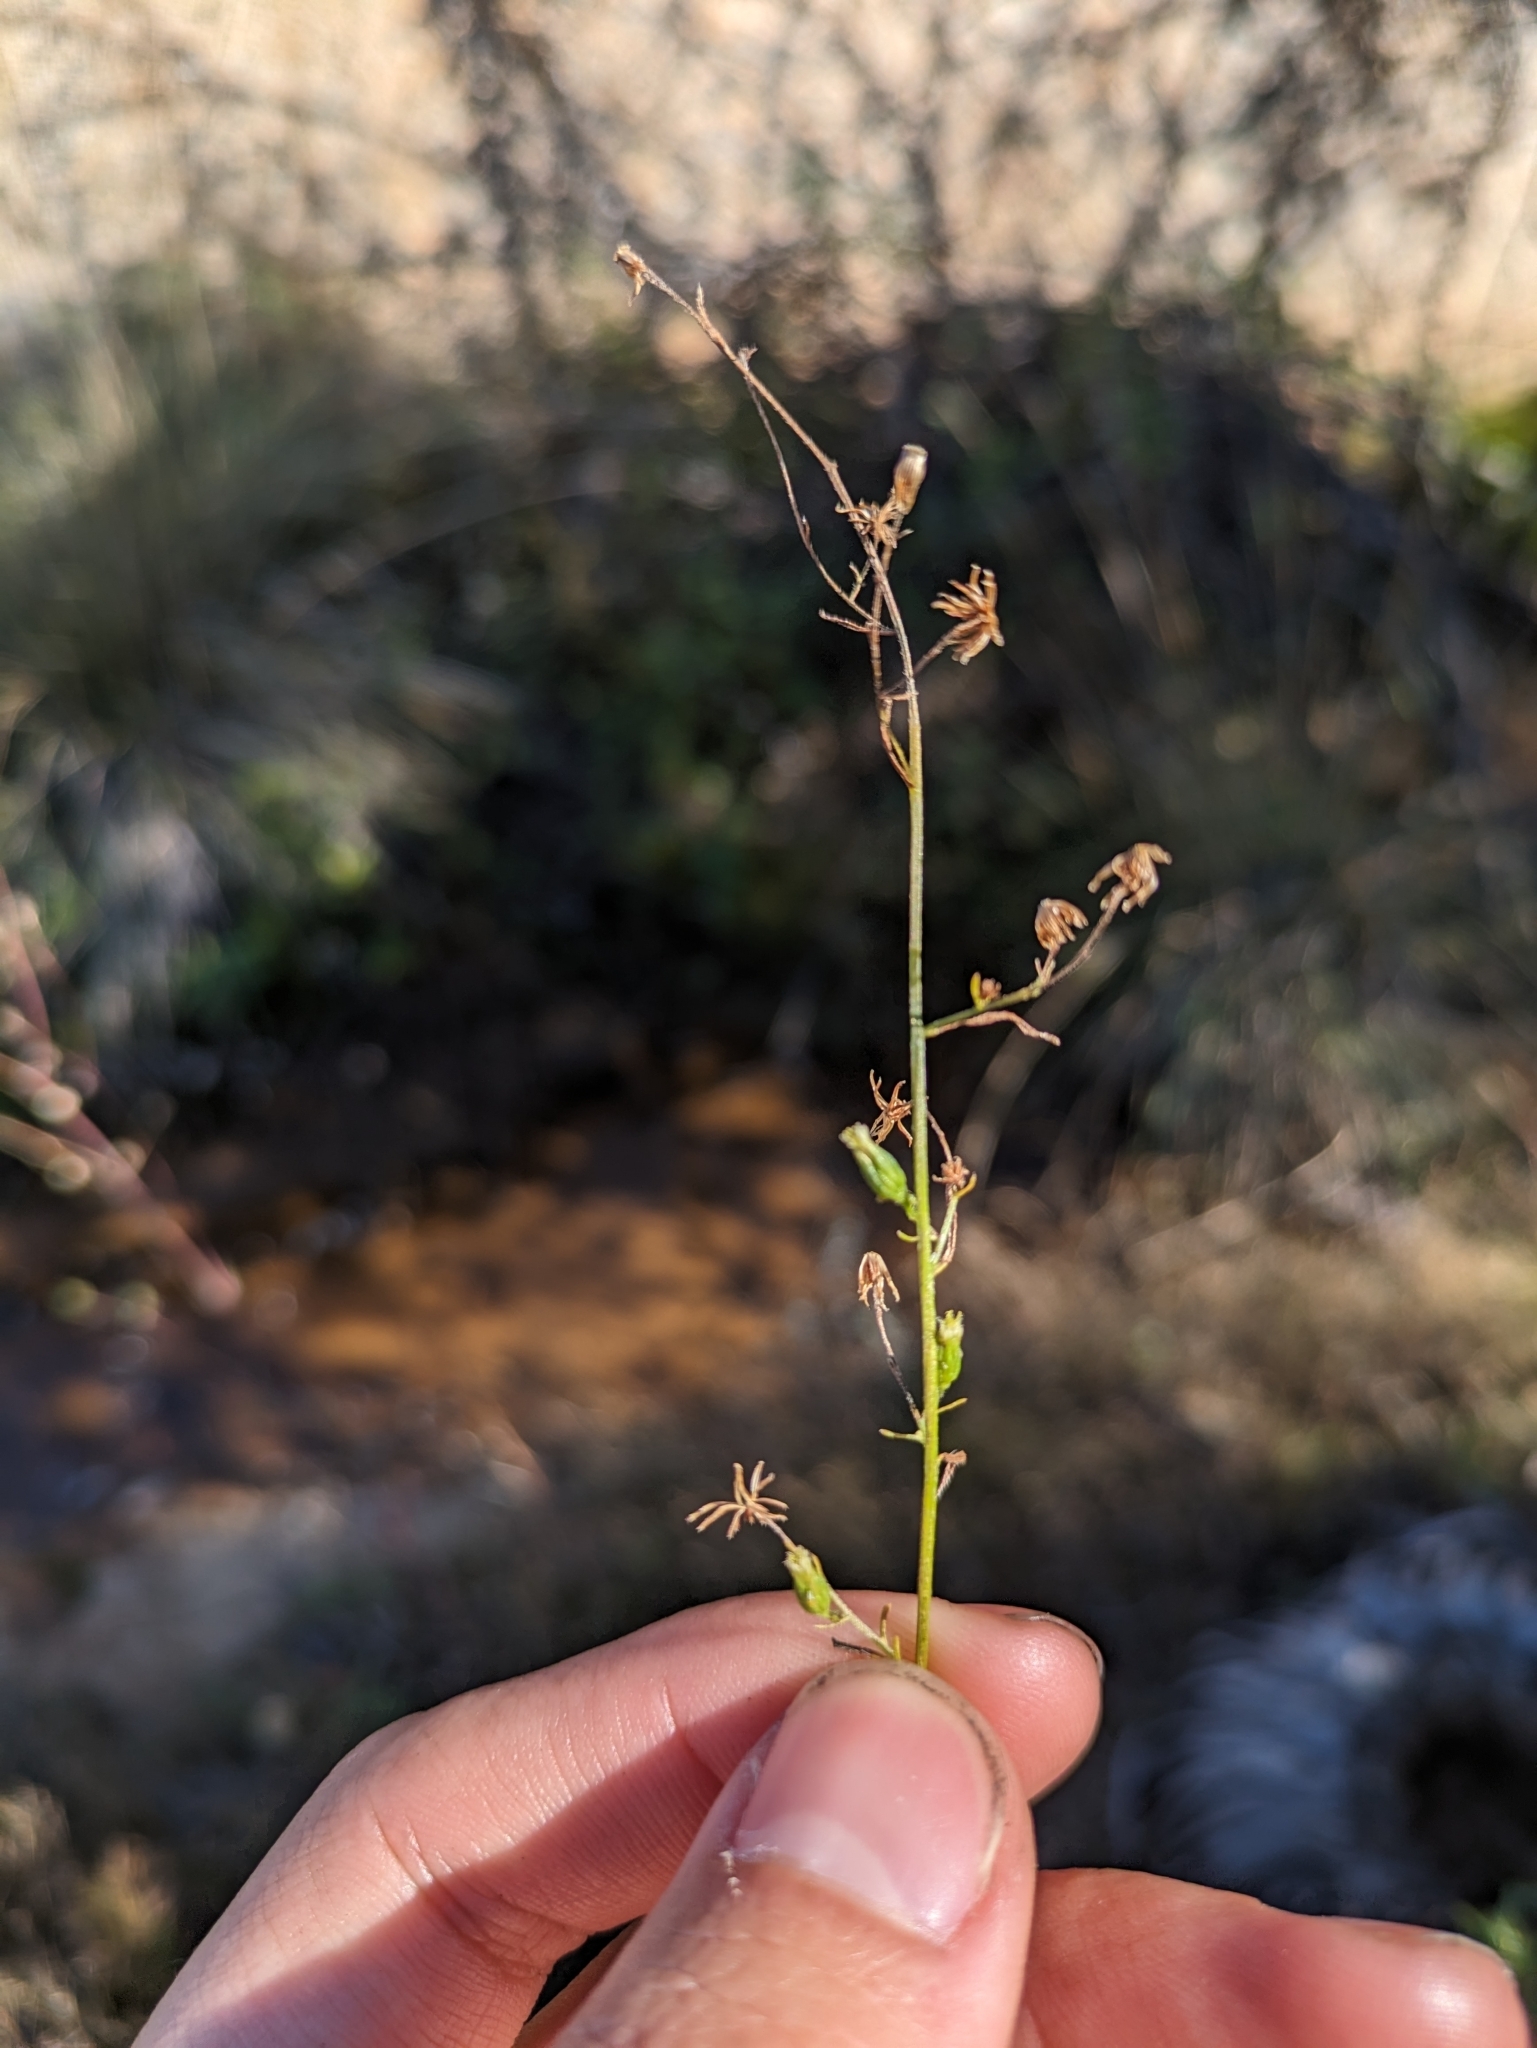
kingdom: Plantae
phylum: Tracheophyta
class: Magnoliopsida
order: Asterales
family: Asteraceae
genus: Erigeron
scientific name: Erigeron canadensis
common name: Canadian fleabane
